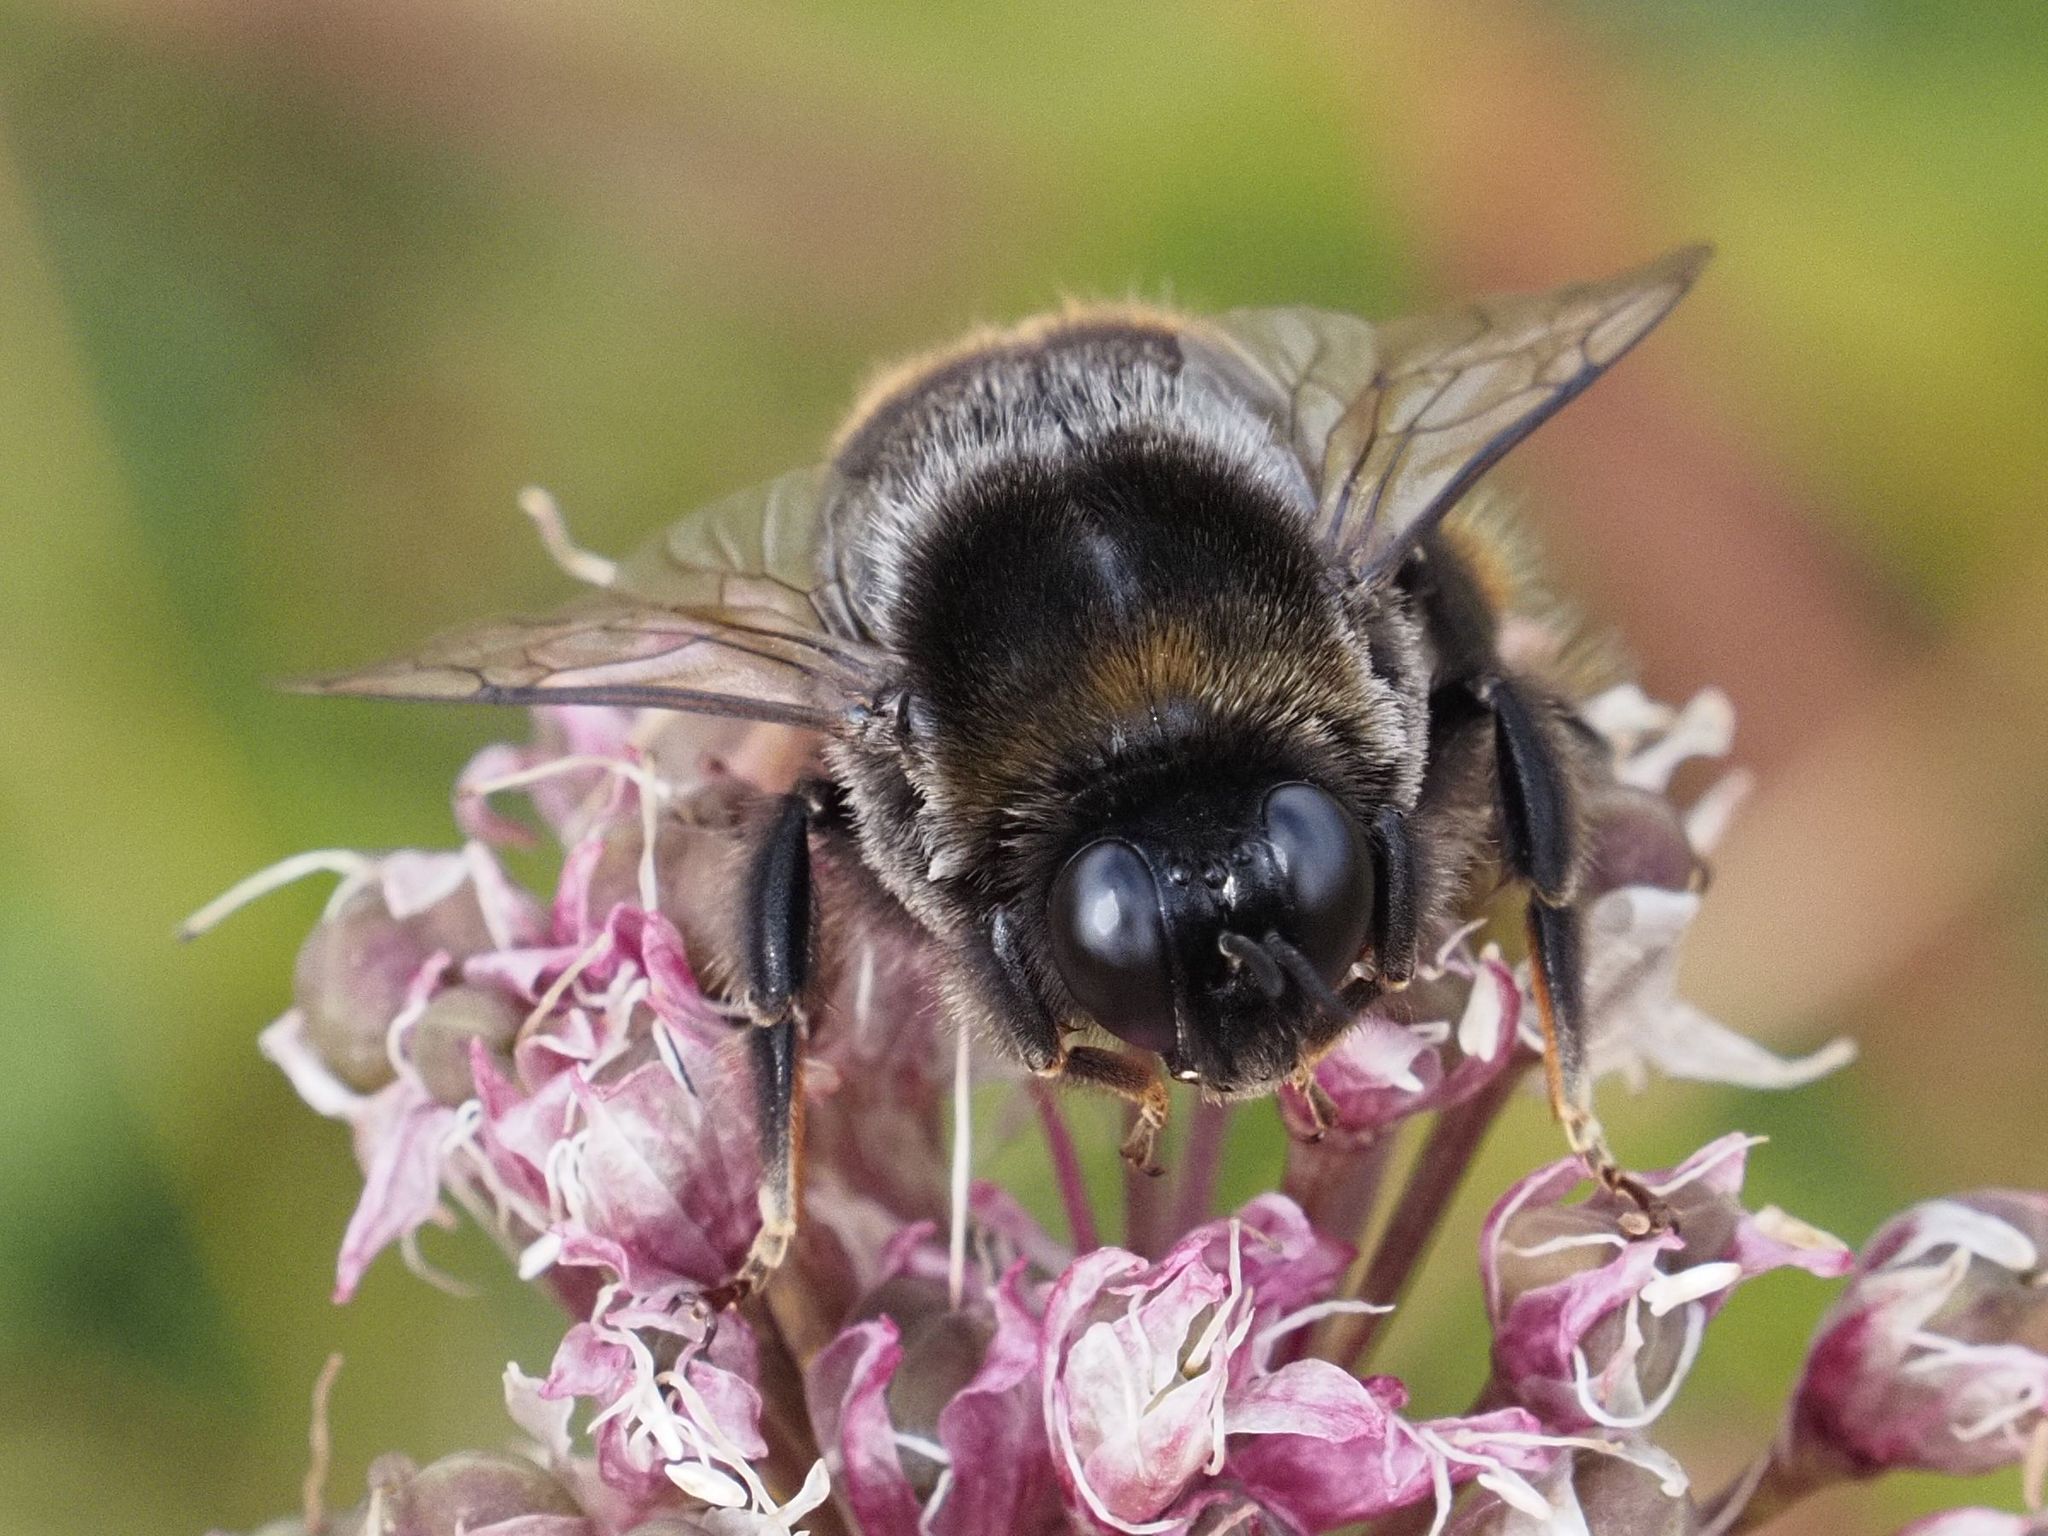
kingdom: Animalia
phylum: Arthropoda
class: Insecta
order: Hymenoptera
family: Apidae
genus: Bombus
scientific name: Bombus confusus
